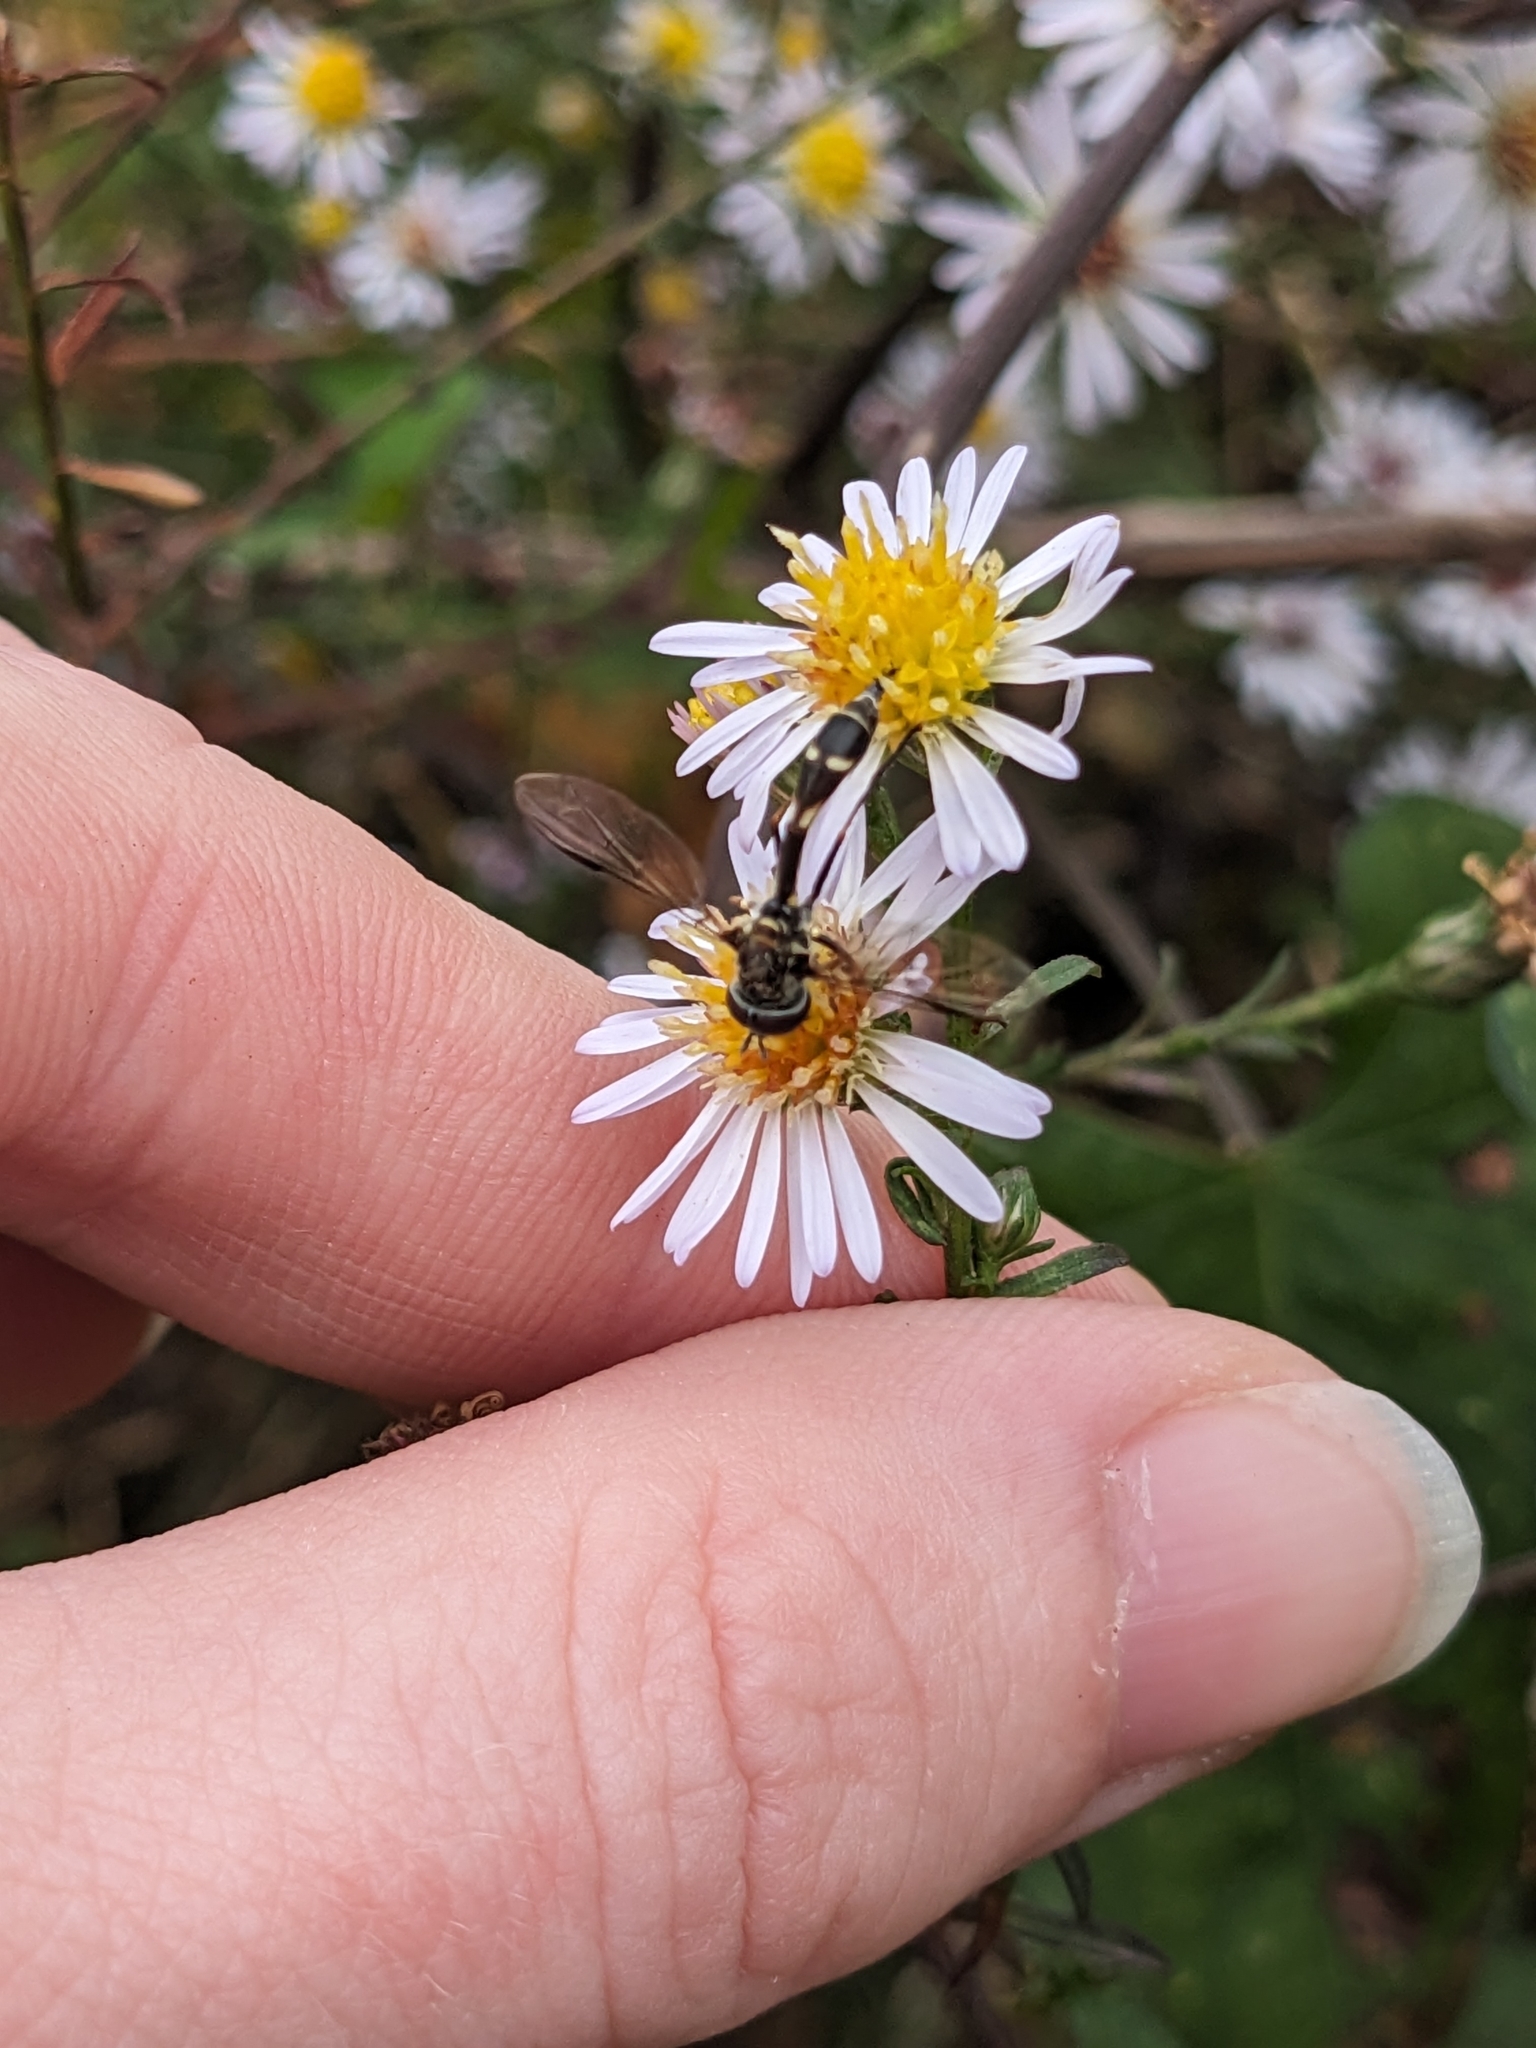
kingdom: Animalia
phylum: Arthropoda
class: Insecta
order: Diptera
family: Syrphidae
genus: Dioprosopa
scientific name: Dioprosopa clavatus
